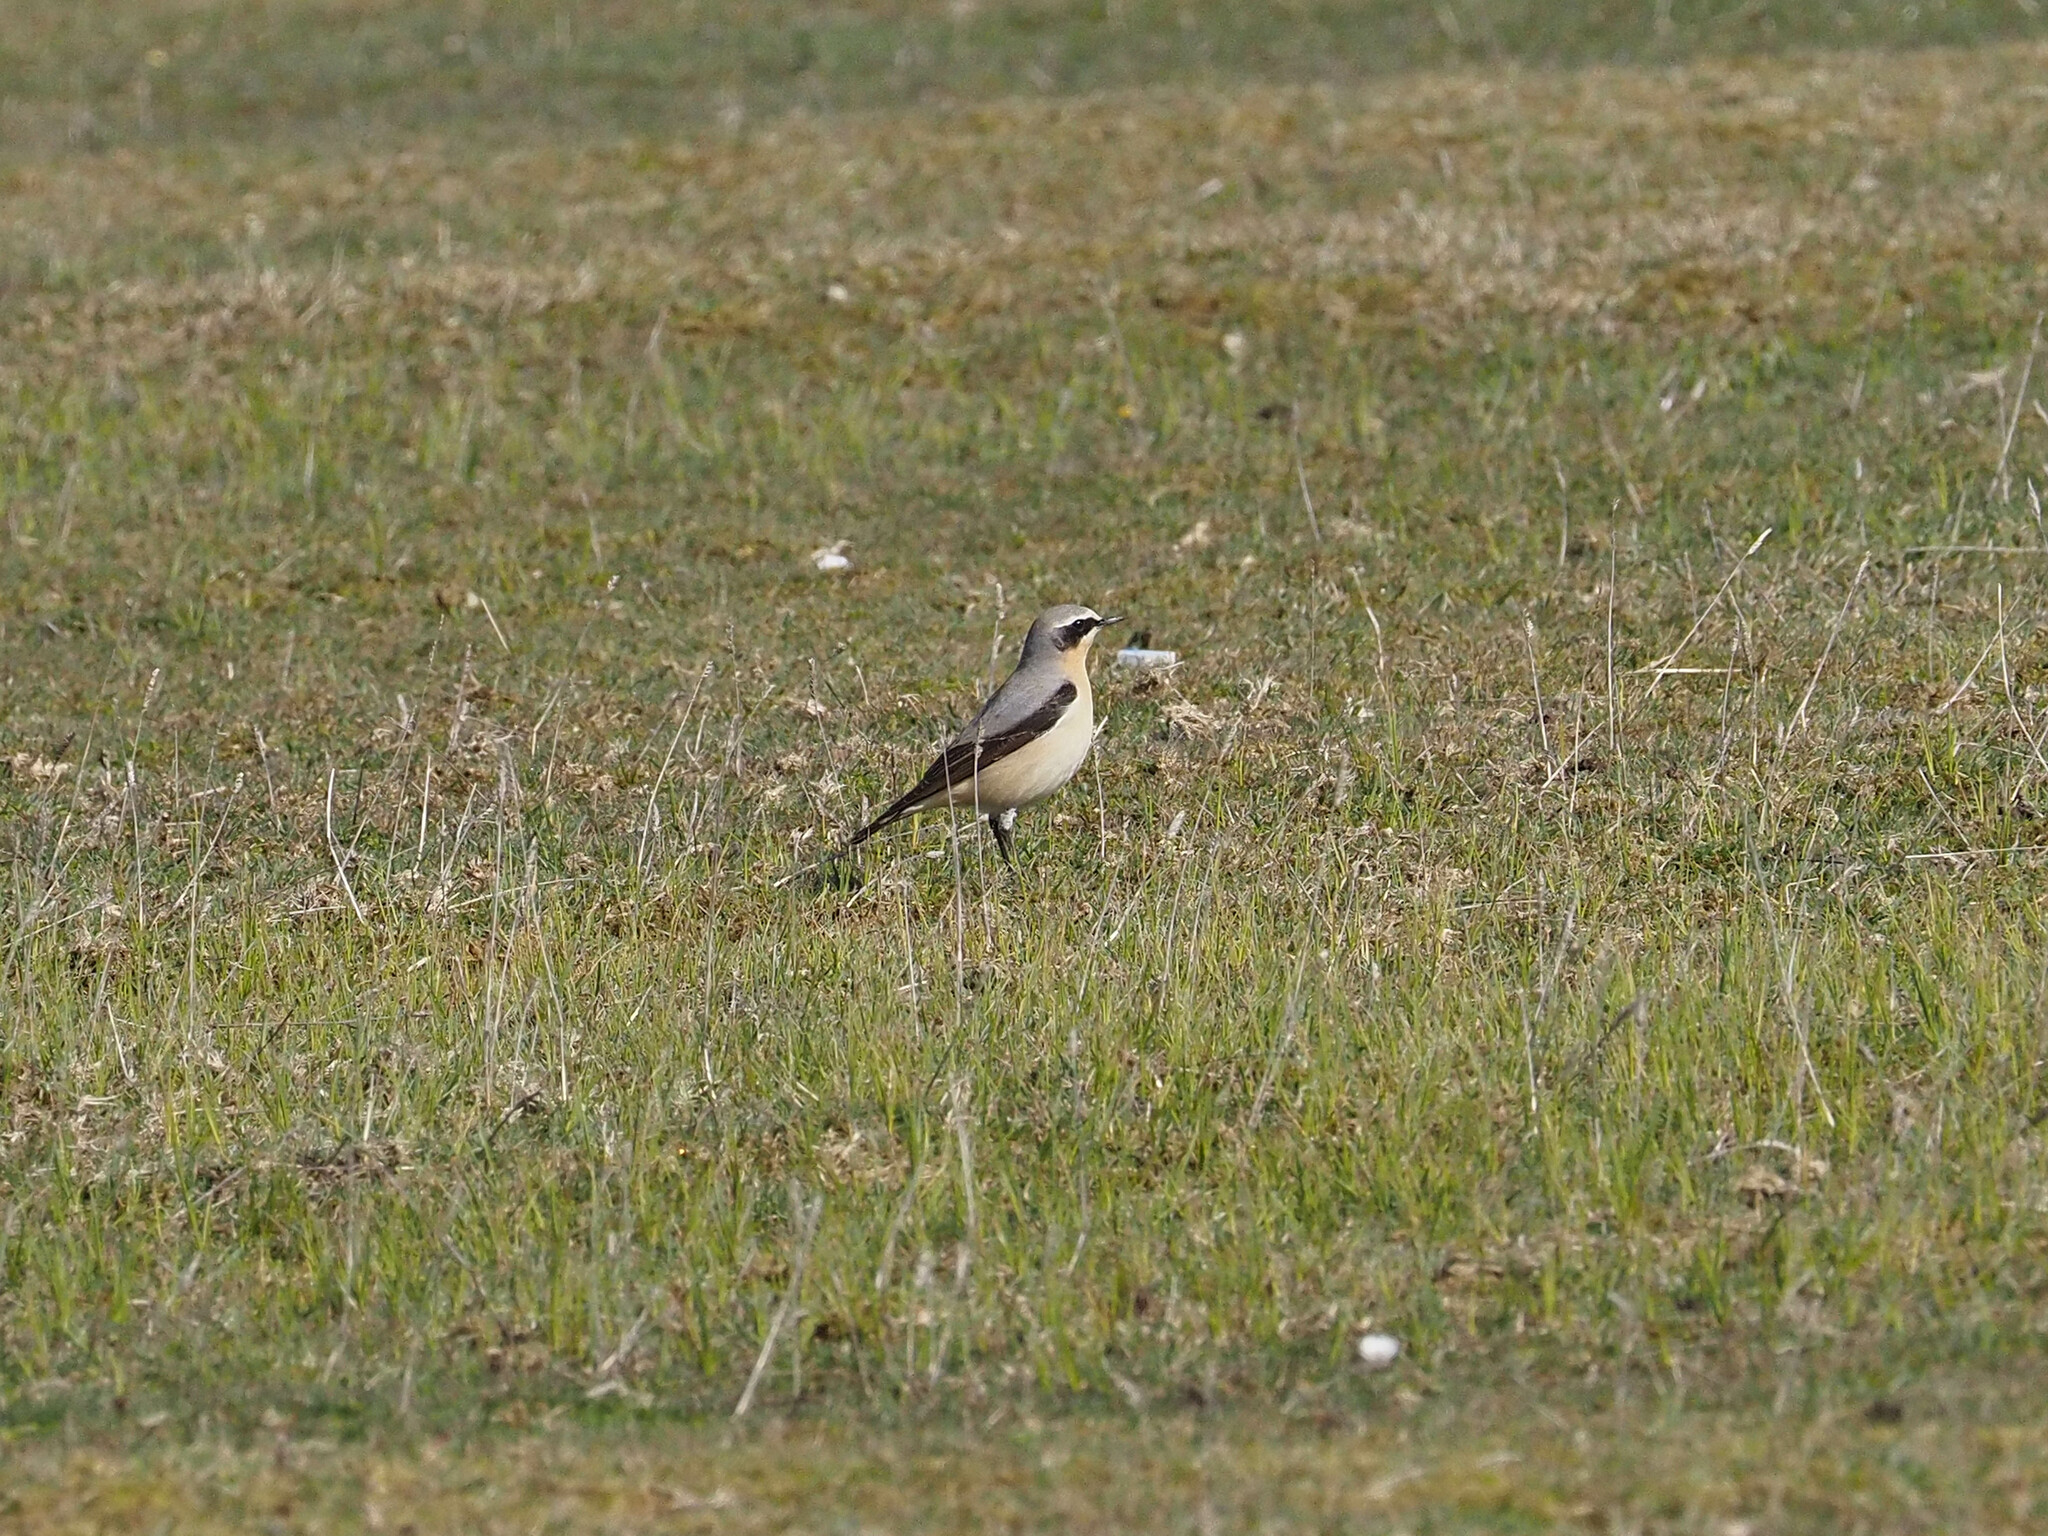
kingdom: Animalia
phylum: Chordata
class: Aves
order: Passeriformes
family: Muscicapidae
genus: Oenanthe
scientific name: Oenanthe oenanthe
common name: Northern wheatear
